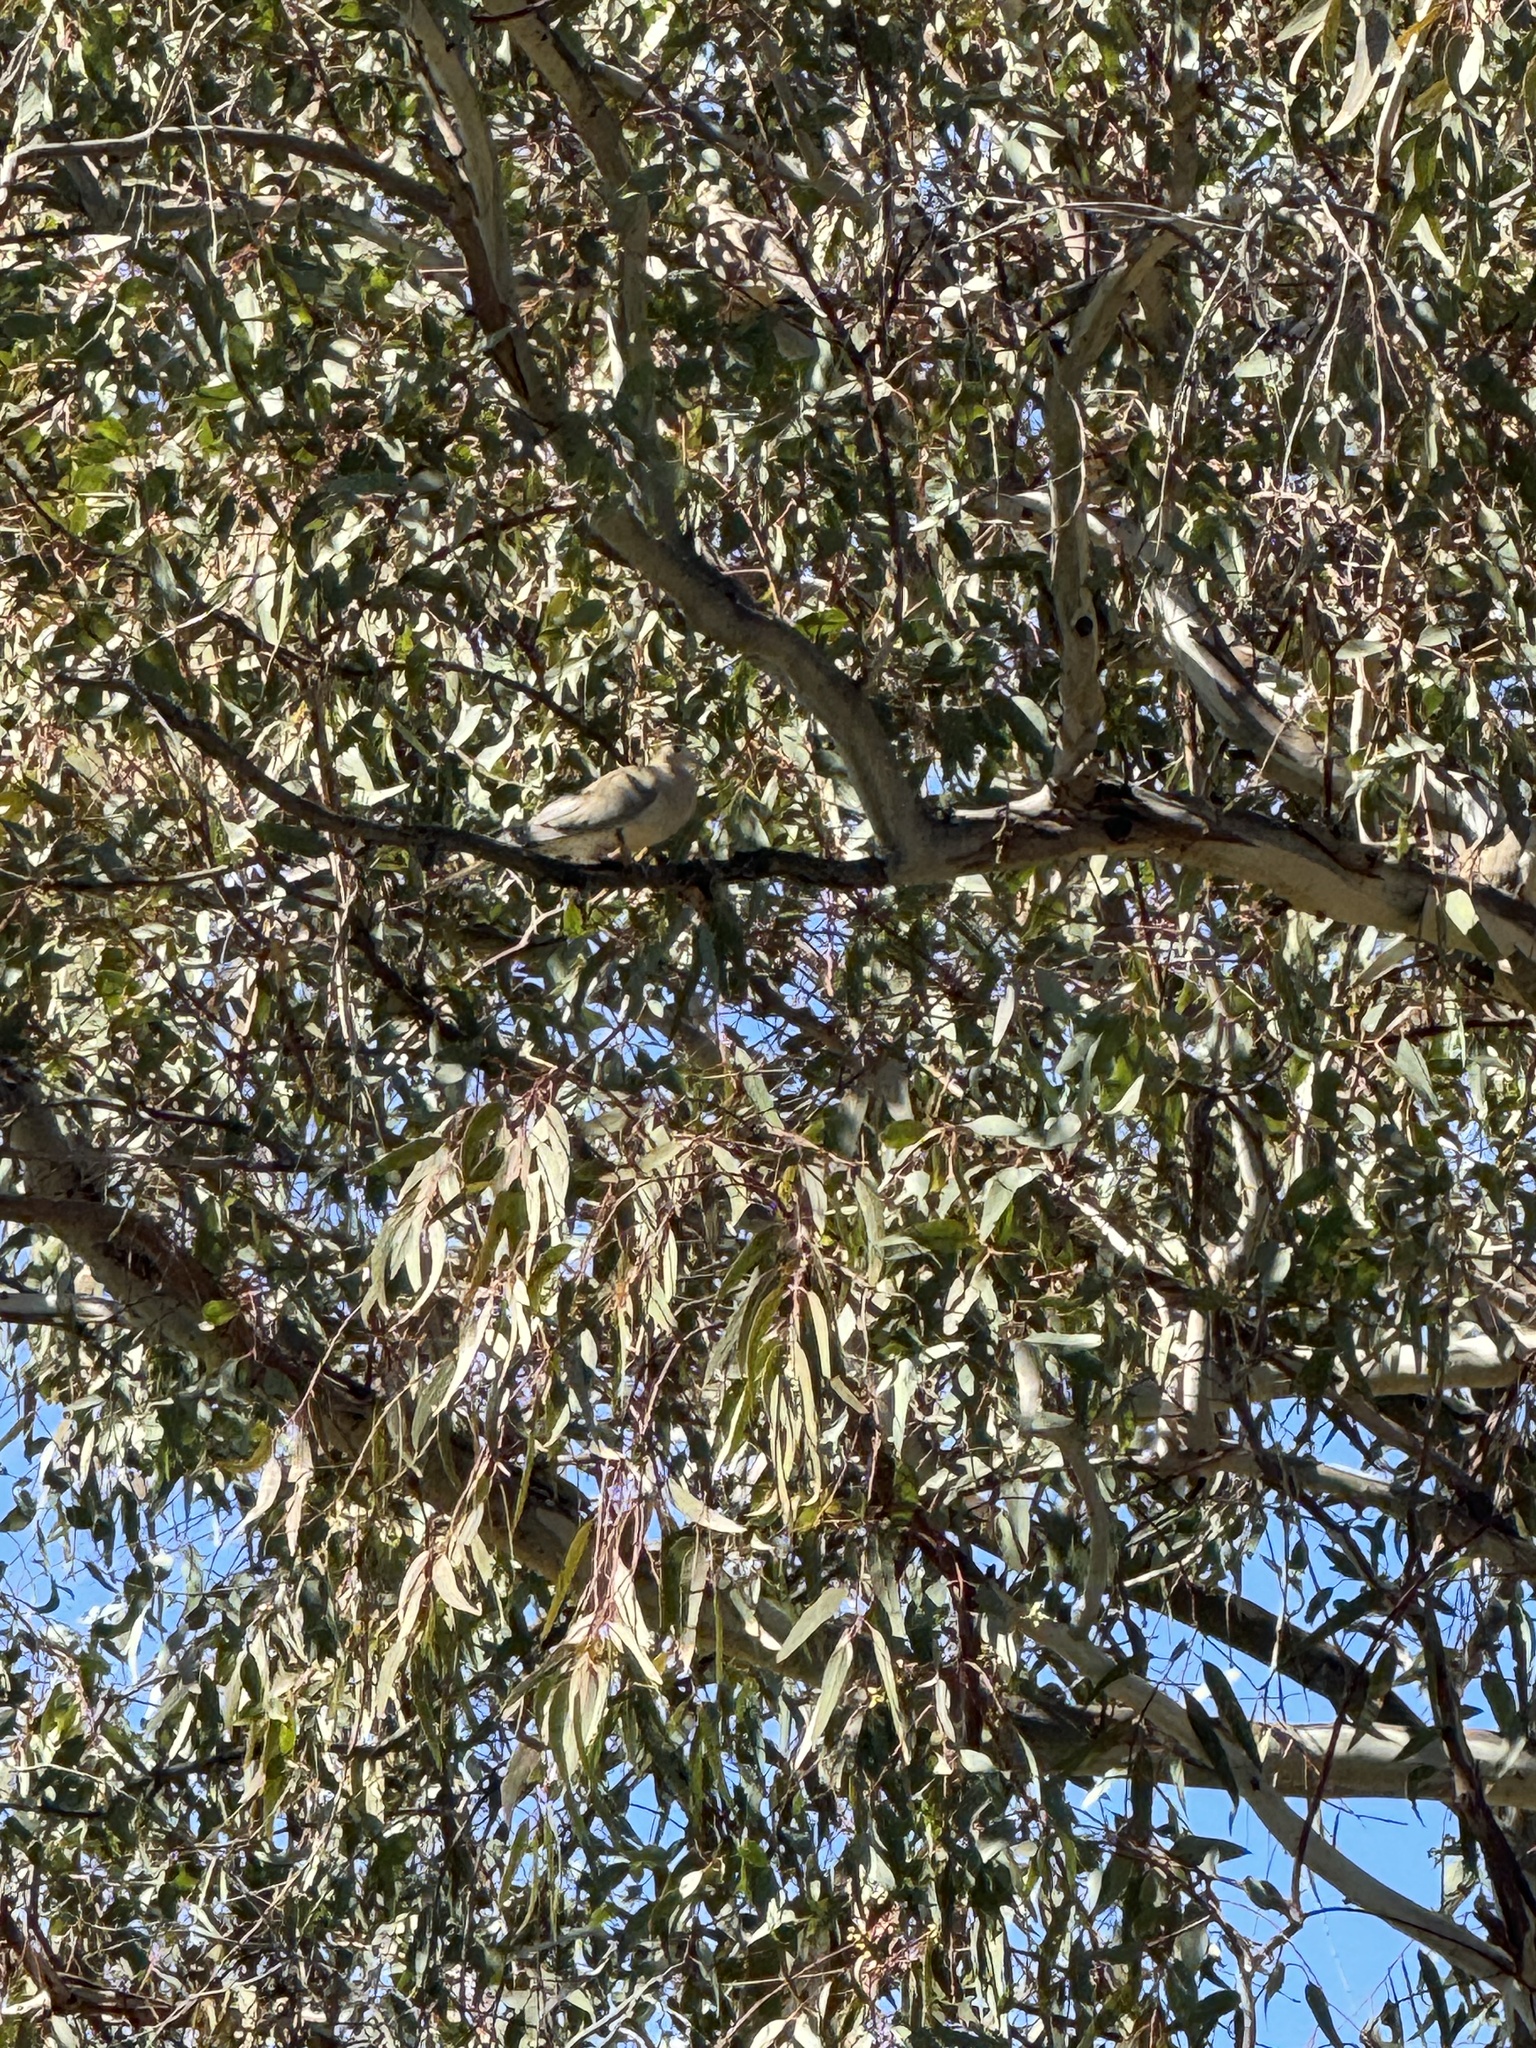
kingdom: Animalia
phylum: Chordata
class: Aves
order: Columbiformes
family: Columbidae
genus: Zenaida
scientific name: Zenaida macroura
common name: Mourning dove
